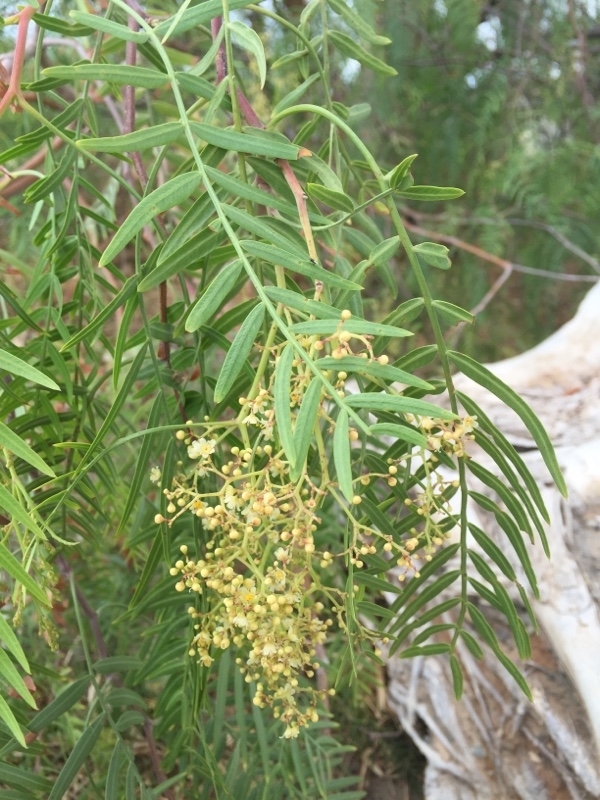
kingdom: Plantae
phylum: Tracheophyta
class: Magnoliopsida
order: Sapindales
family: Anacardiaceae
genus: Schinus
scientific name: Schinus molle
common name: Peruvian peppertree
